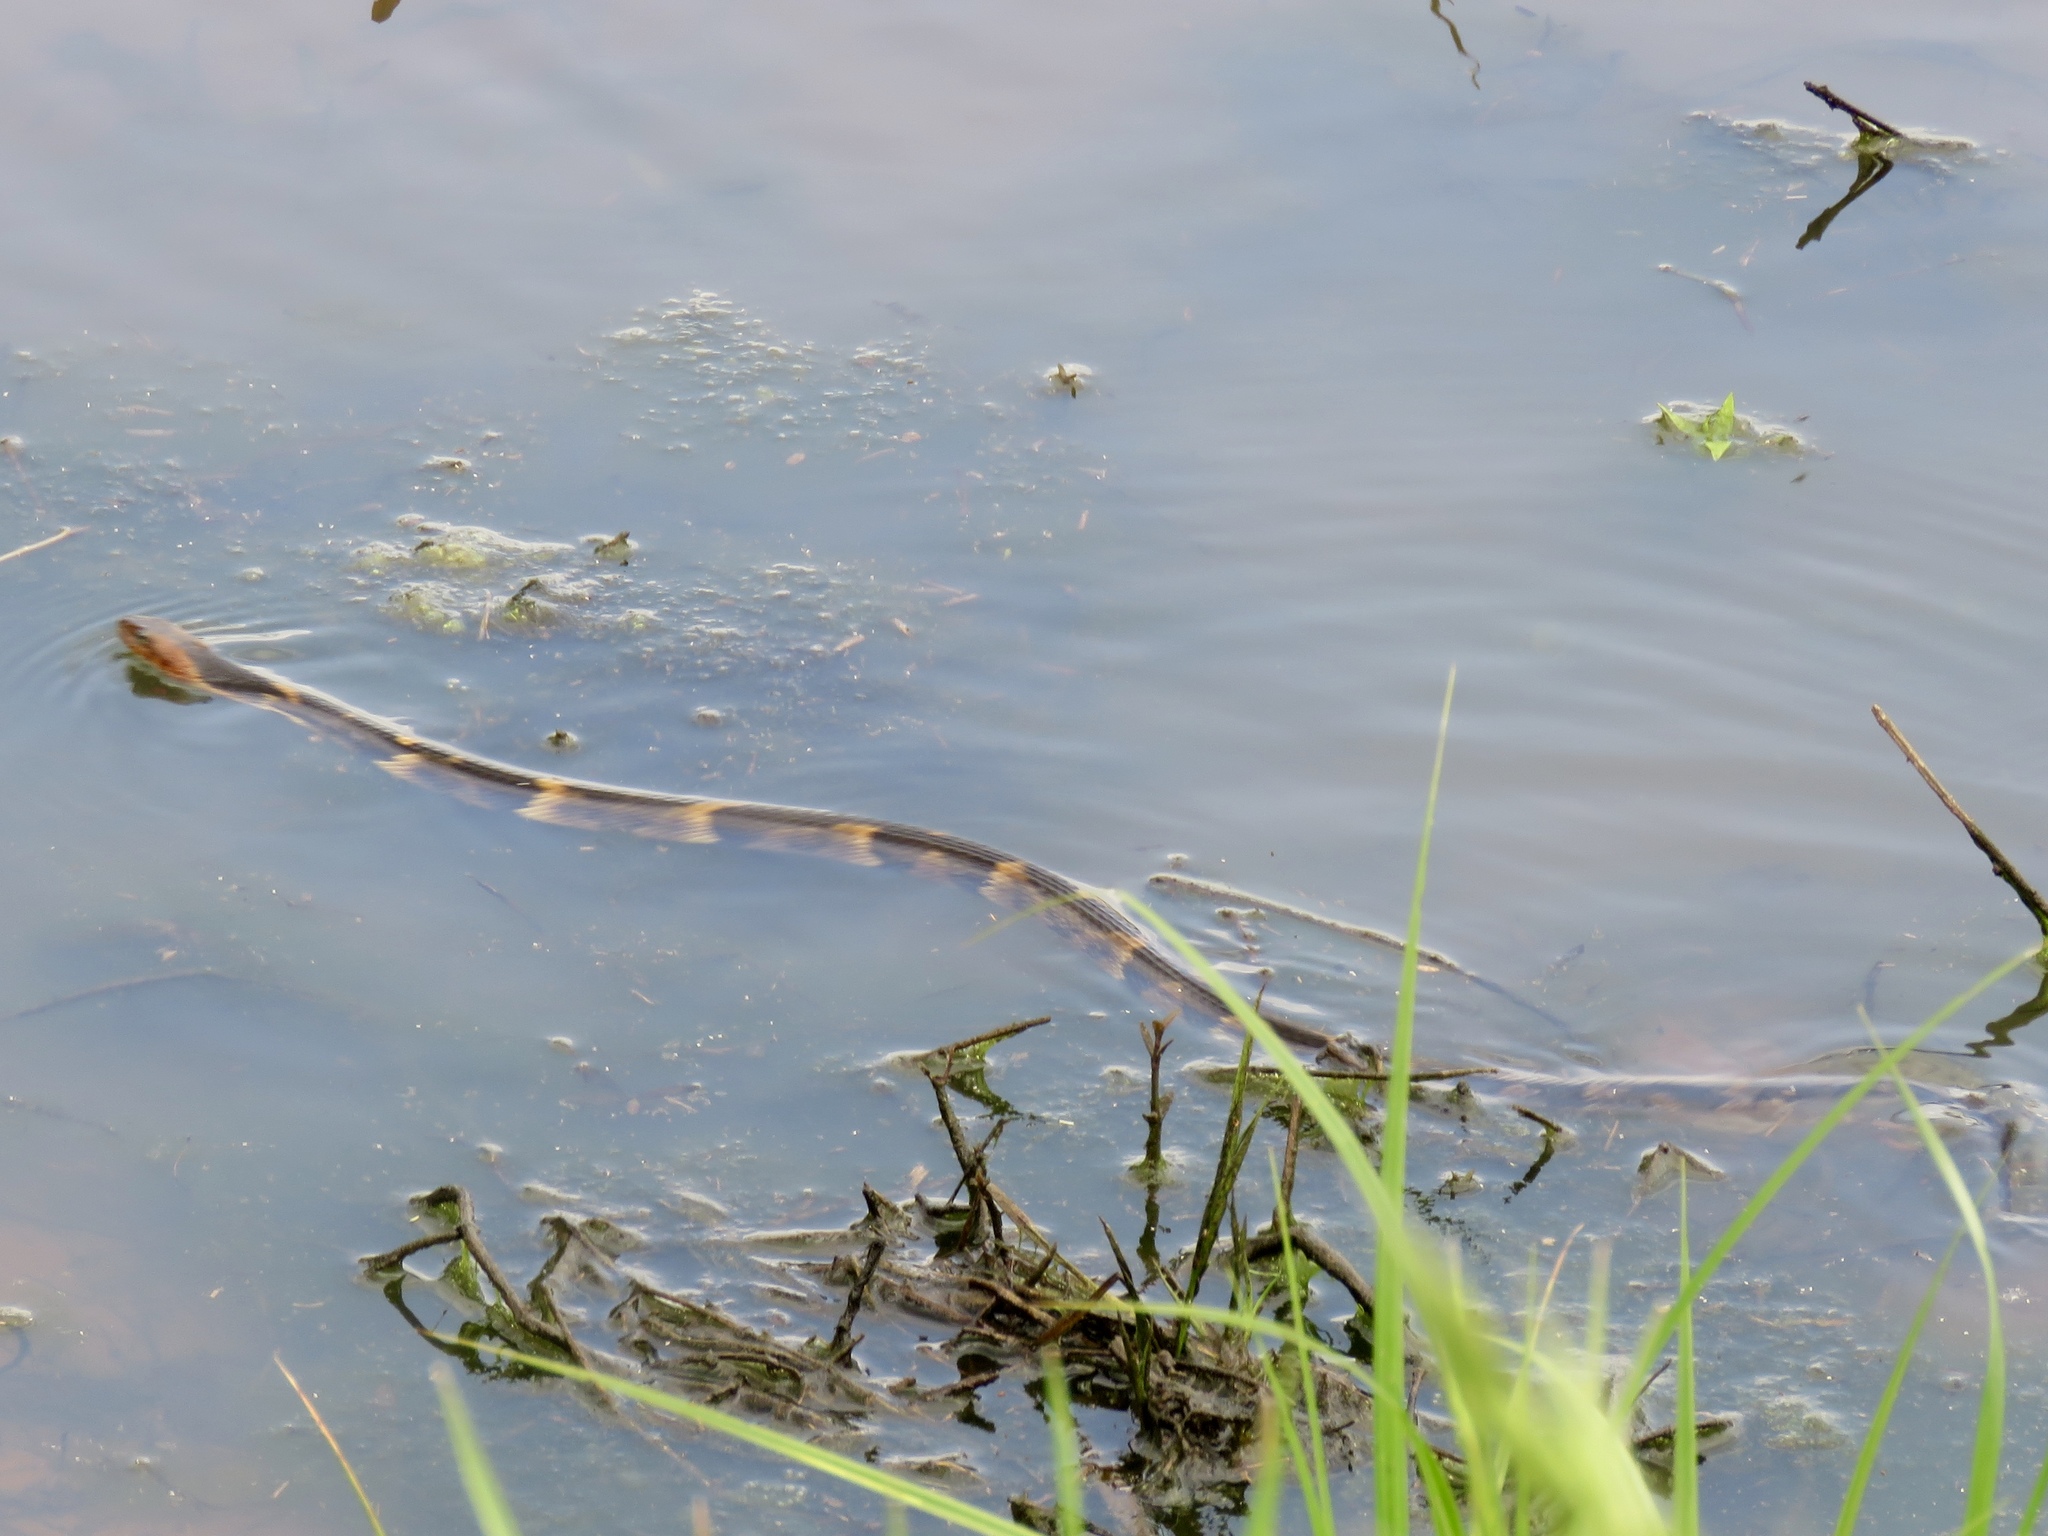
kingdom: Animalia
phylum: Chordata
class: Squamata
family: Colubridae
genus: Nerodia
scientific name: Nerodia fasciata
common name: Southern water snake
